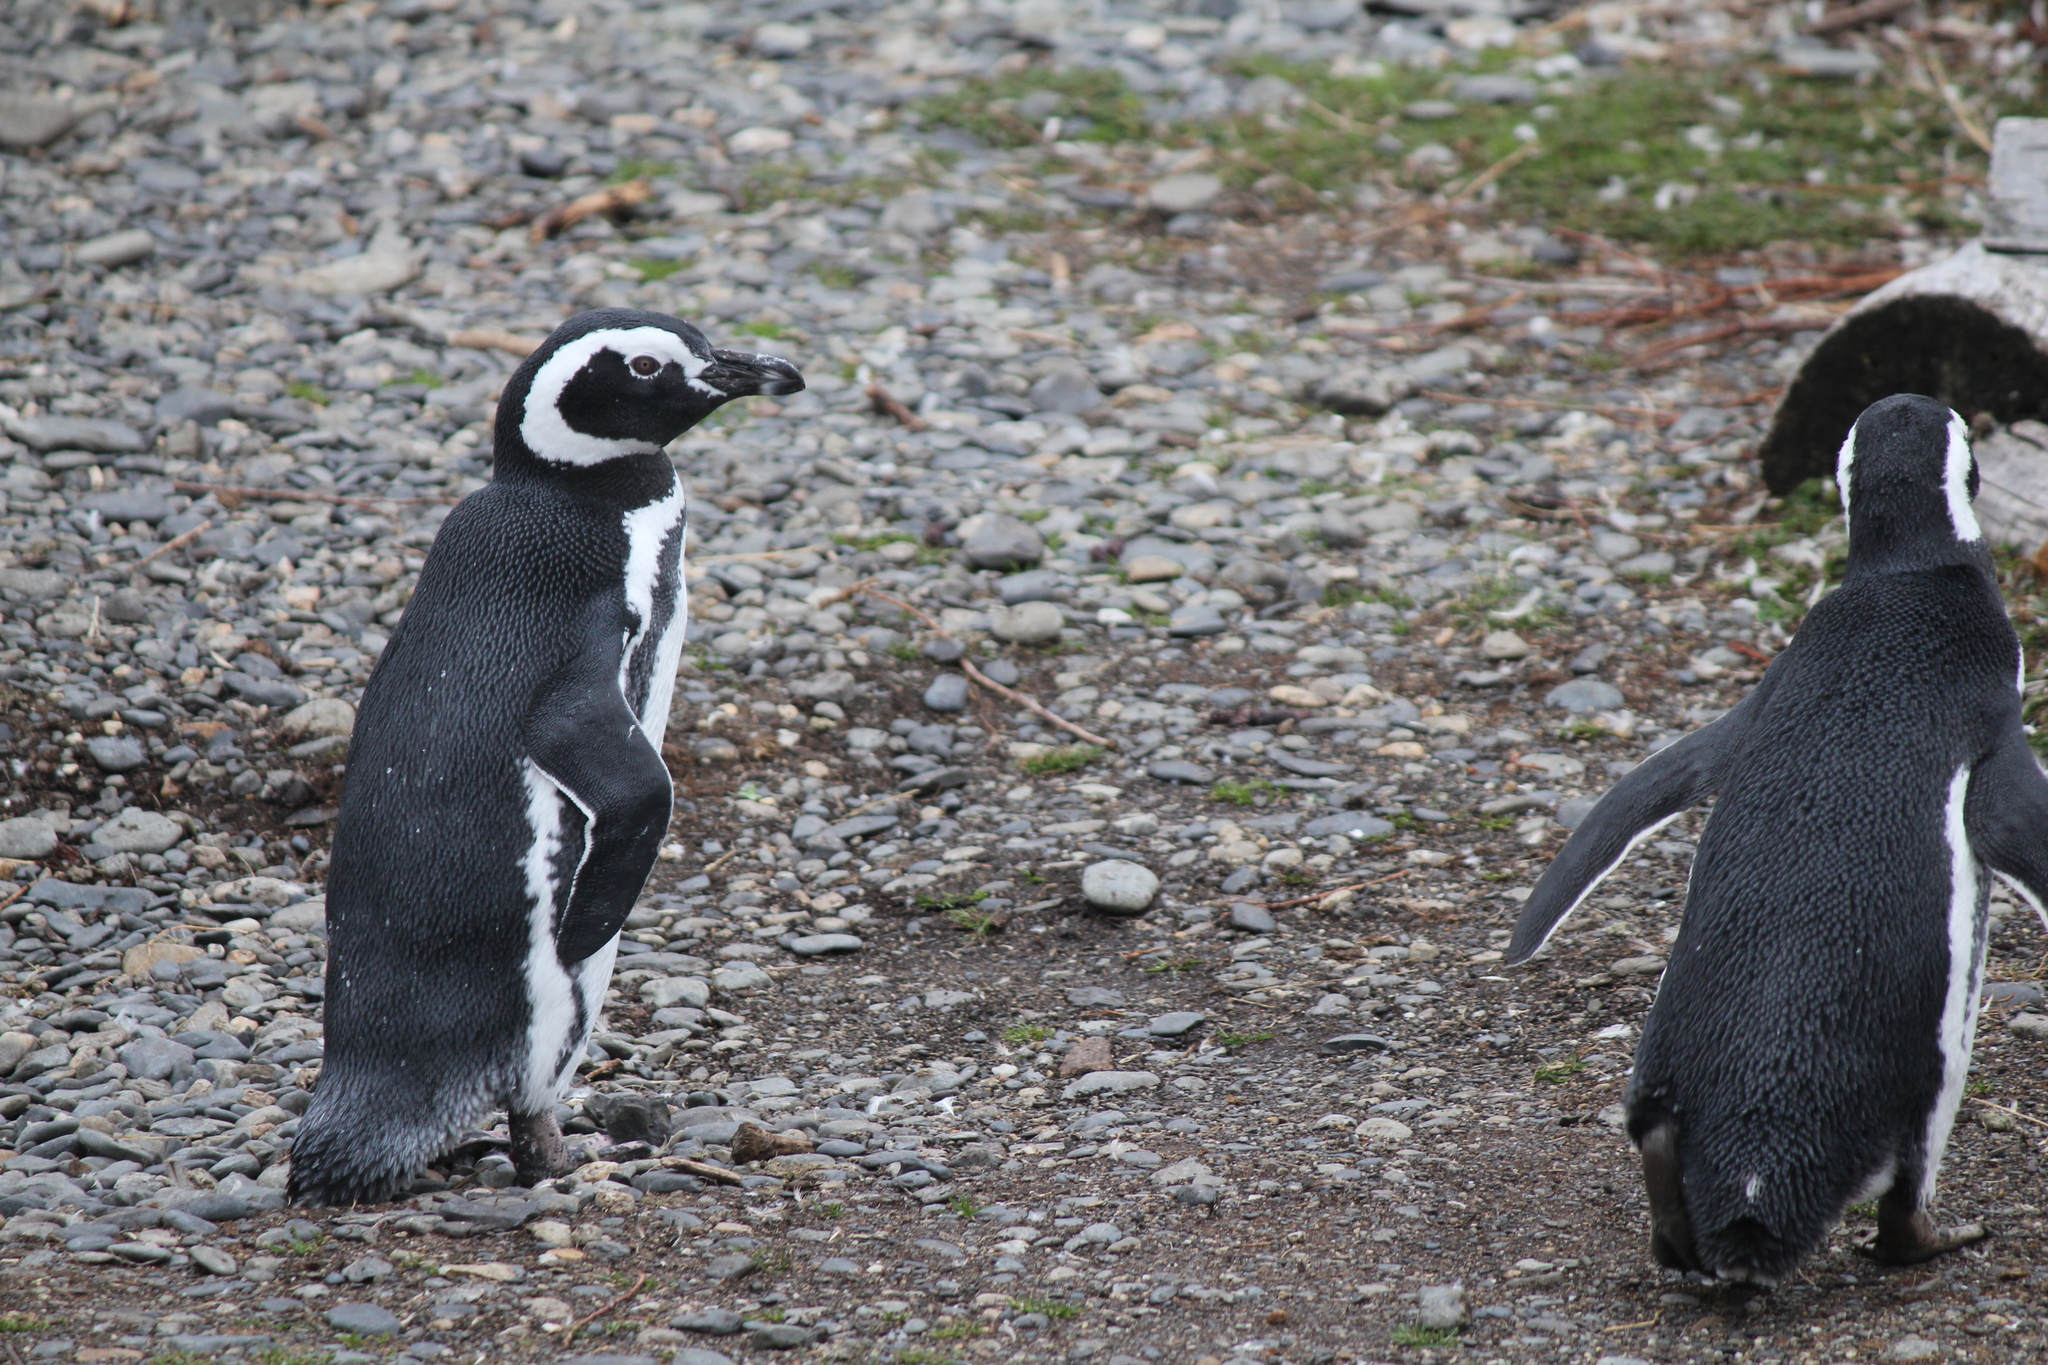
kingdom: Animalia
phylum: Chordata
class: Aves
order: Sphenisciformes
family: Spheniscidae
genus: Spheniscus
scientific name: Spheniscus magellanicus
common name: Magellanic penguin
